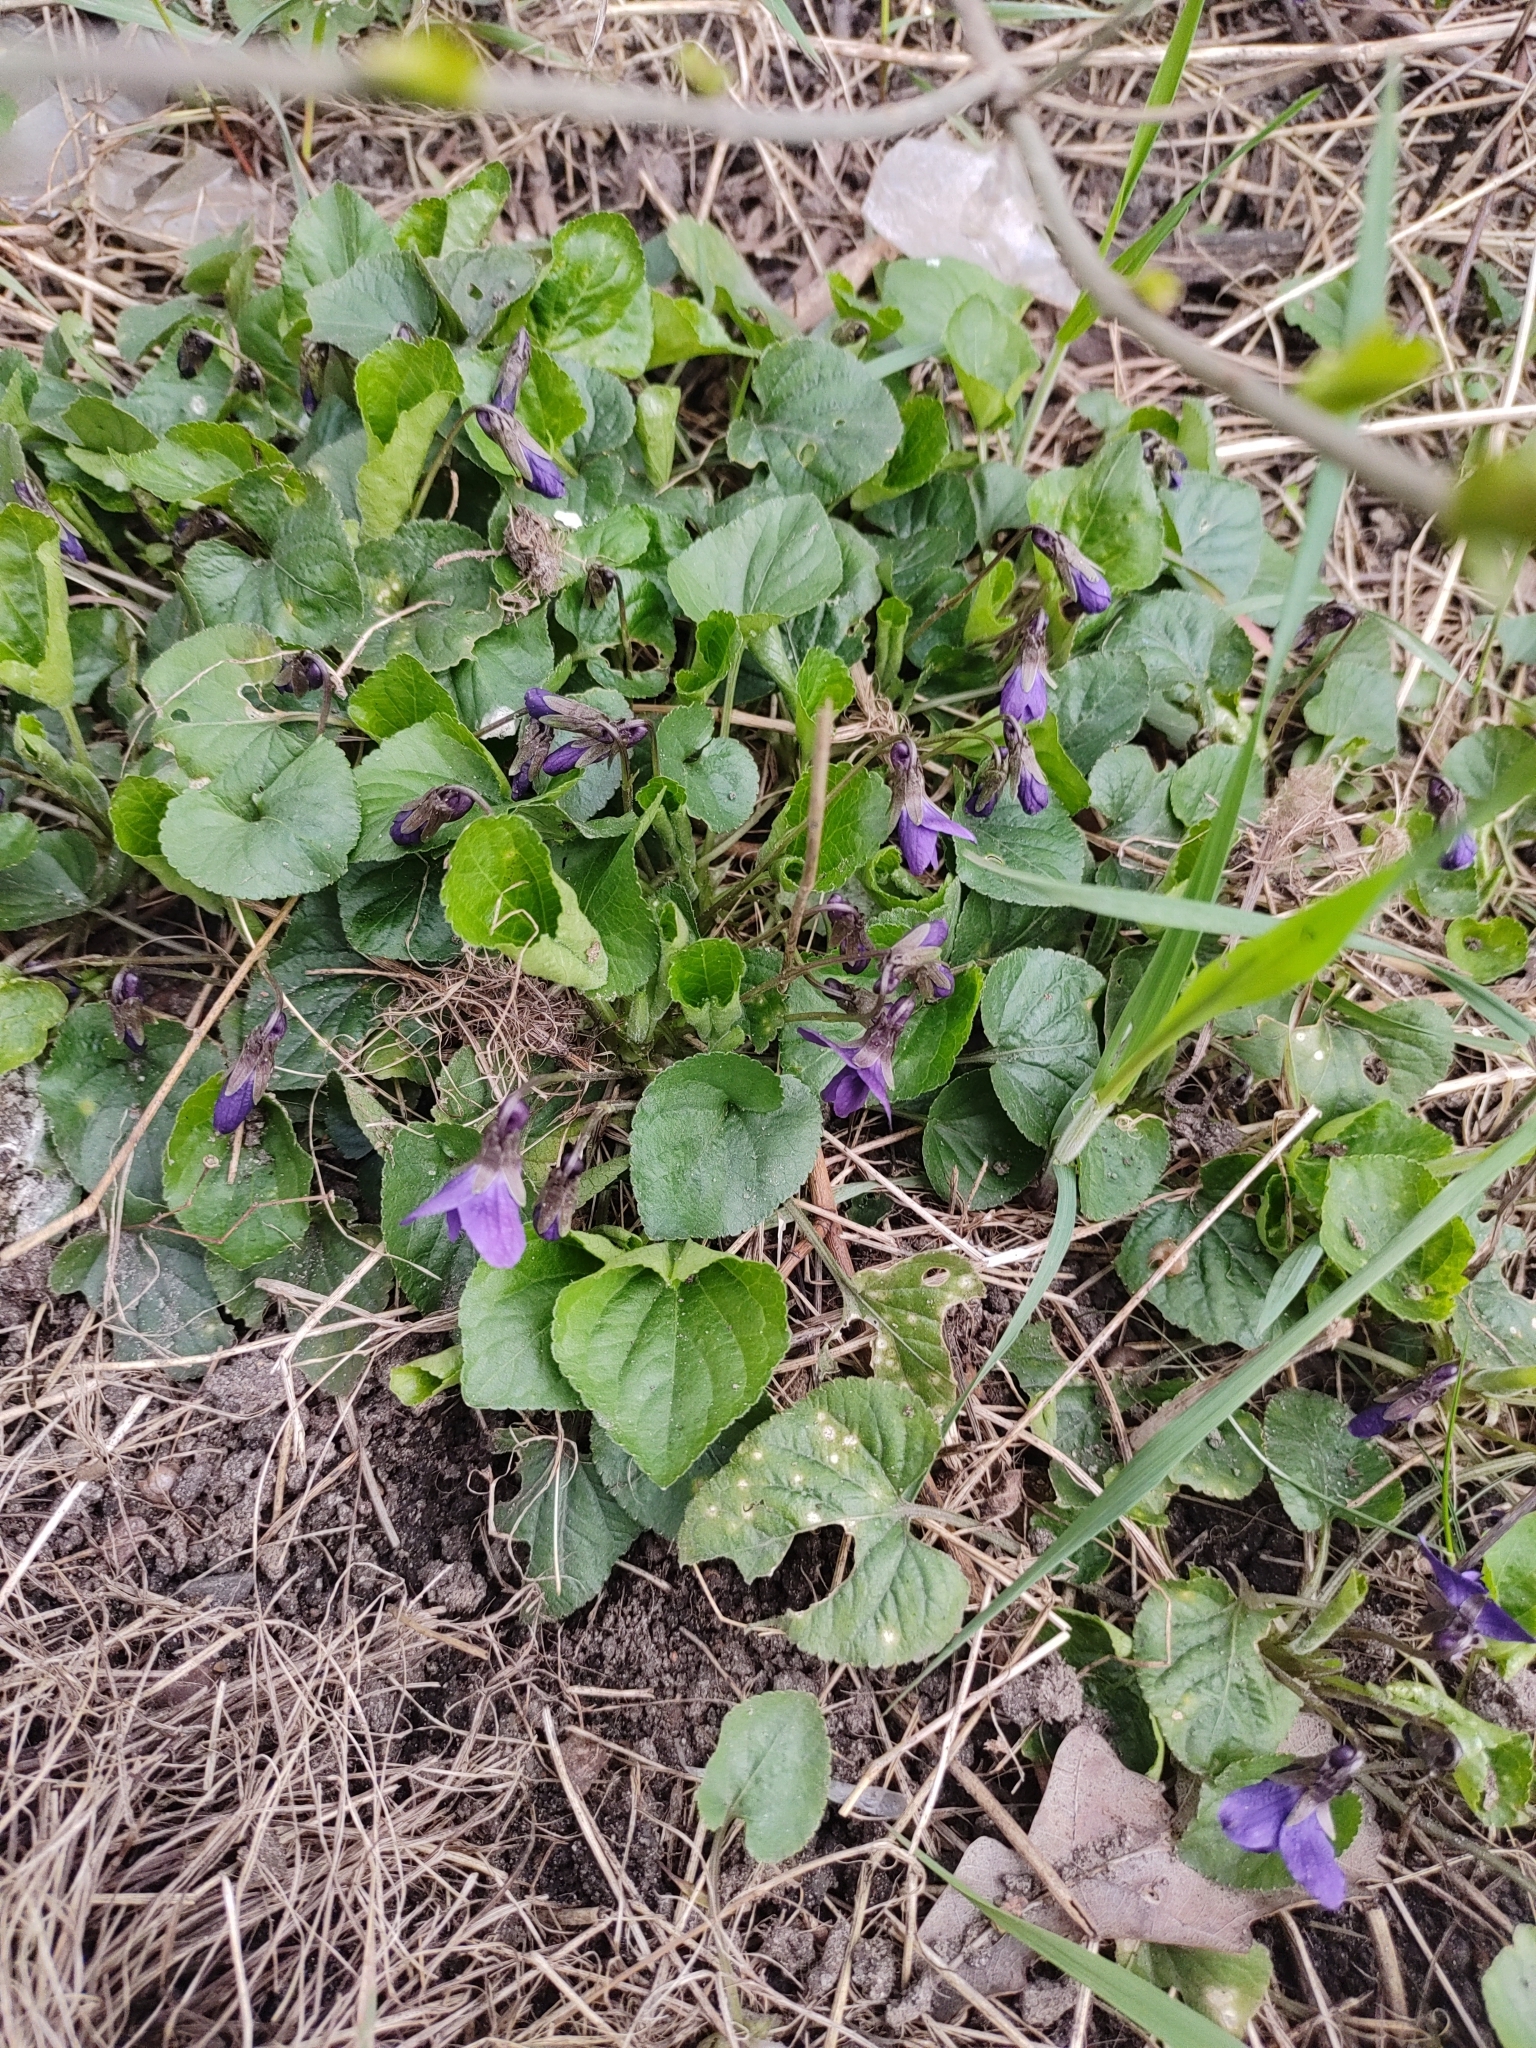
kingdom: Plantae
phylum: Tracheophyta
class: Magnoliopsida
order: Malpighiales
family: Violaceae
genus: Viola
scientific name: Viola odorata
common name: Sweet violet
